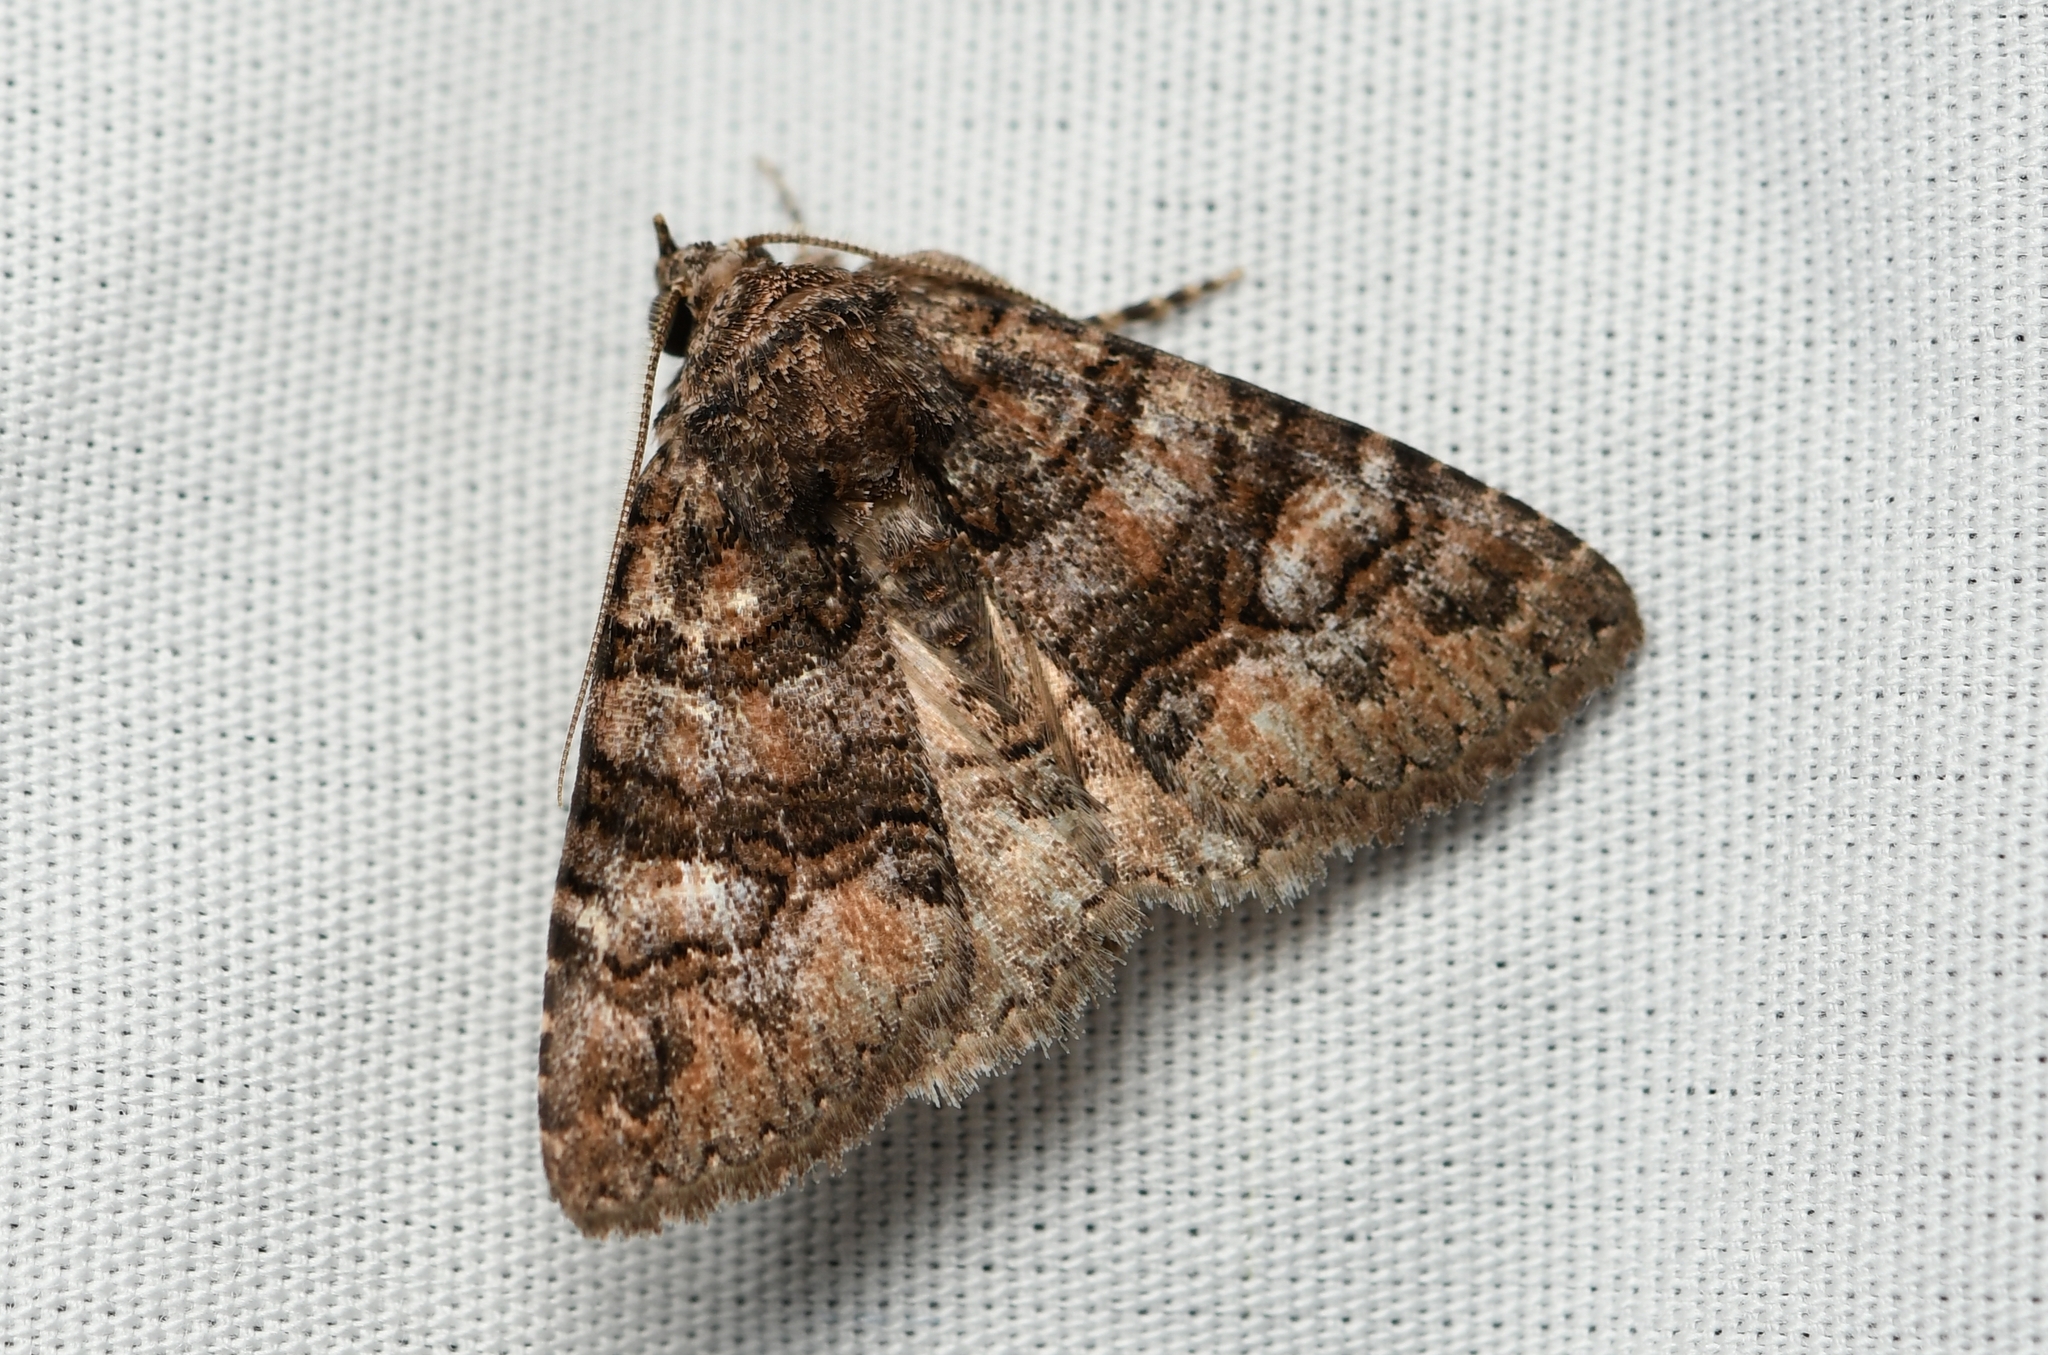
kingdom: Animalia
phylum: Arthropoda
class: Insecta
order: Lepidoptera
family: Erebidae
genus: Elousa
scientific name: Elousa mima
